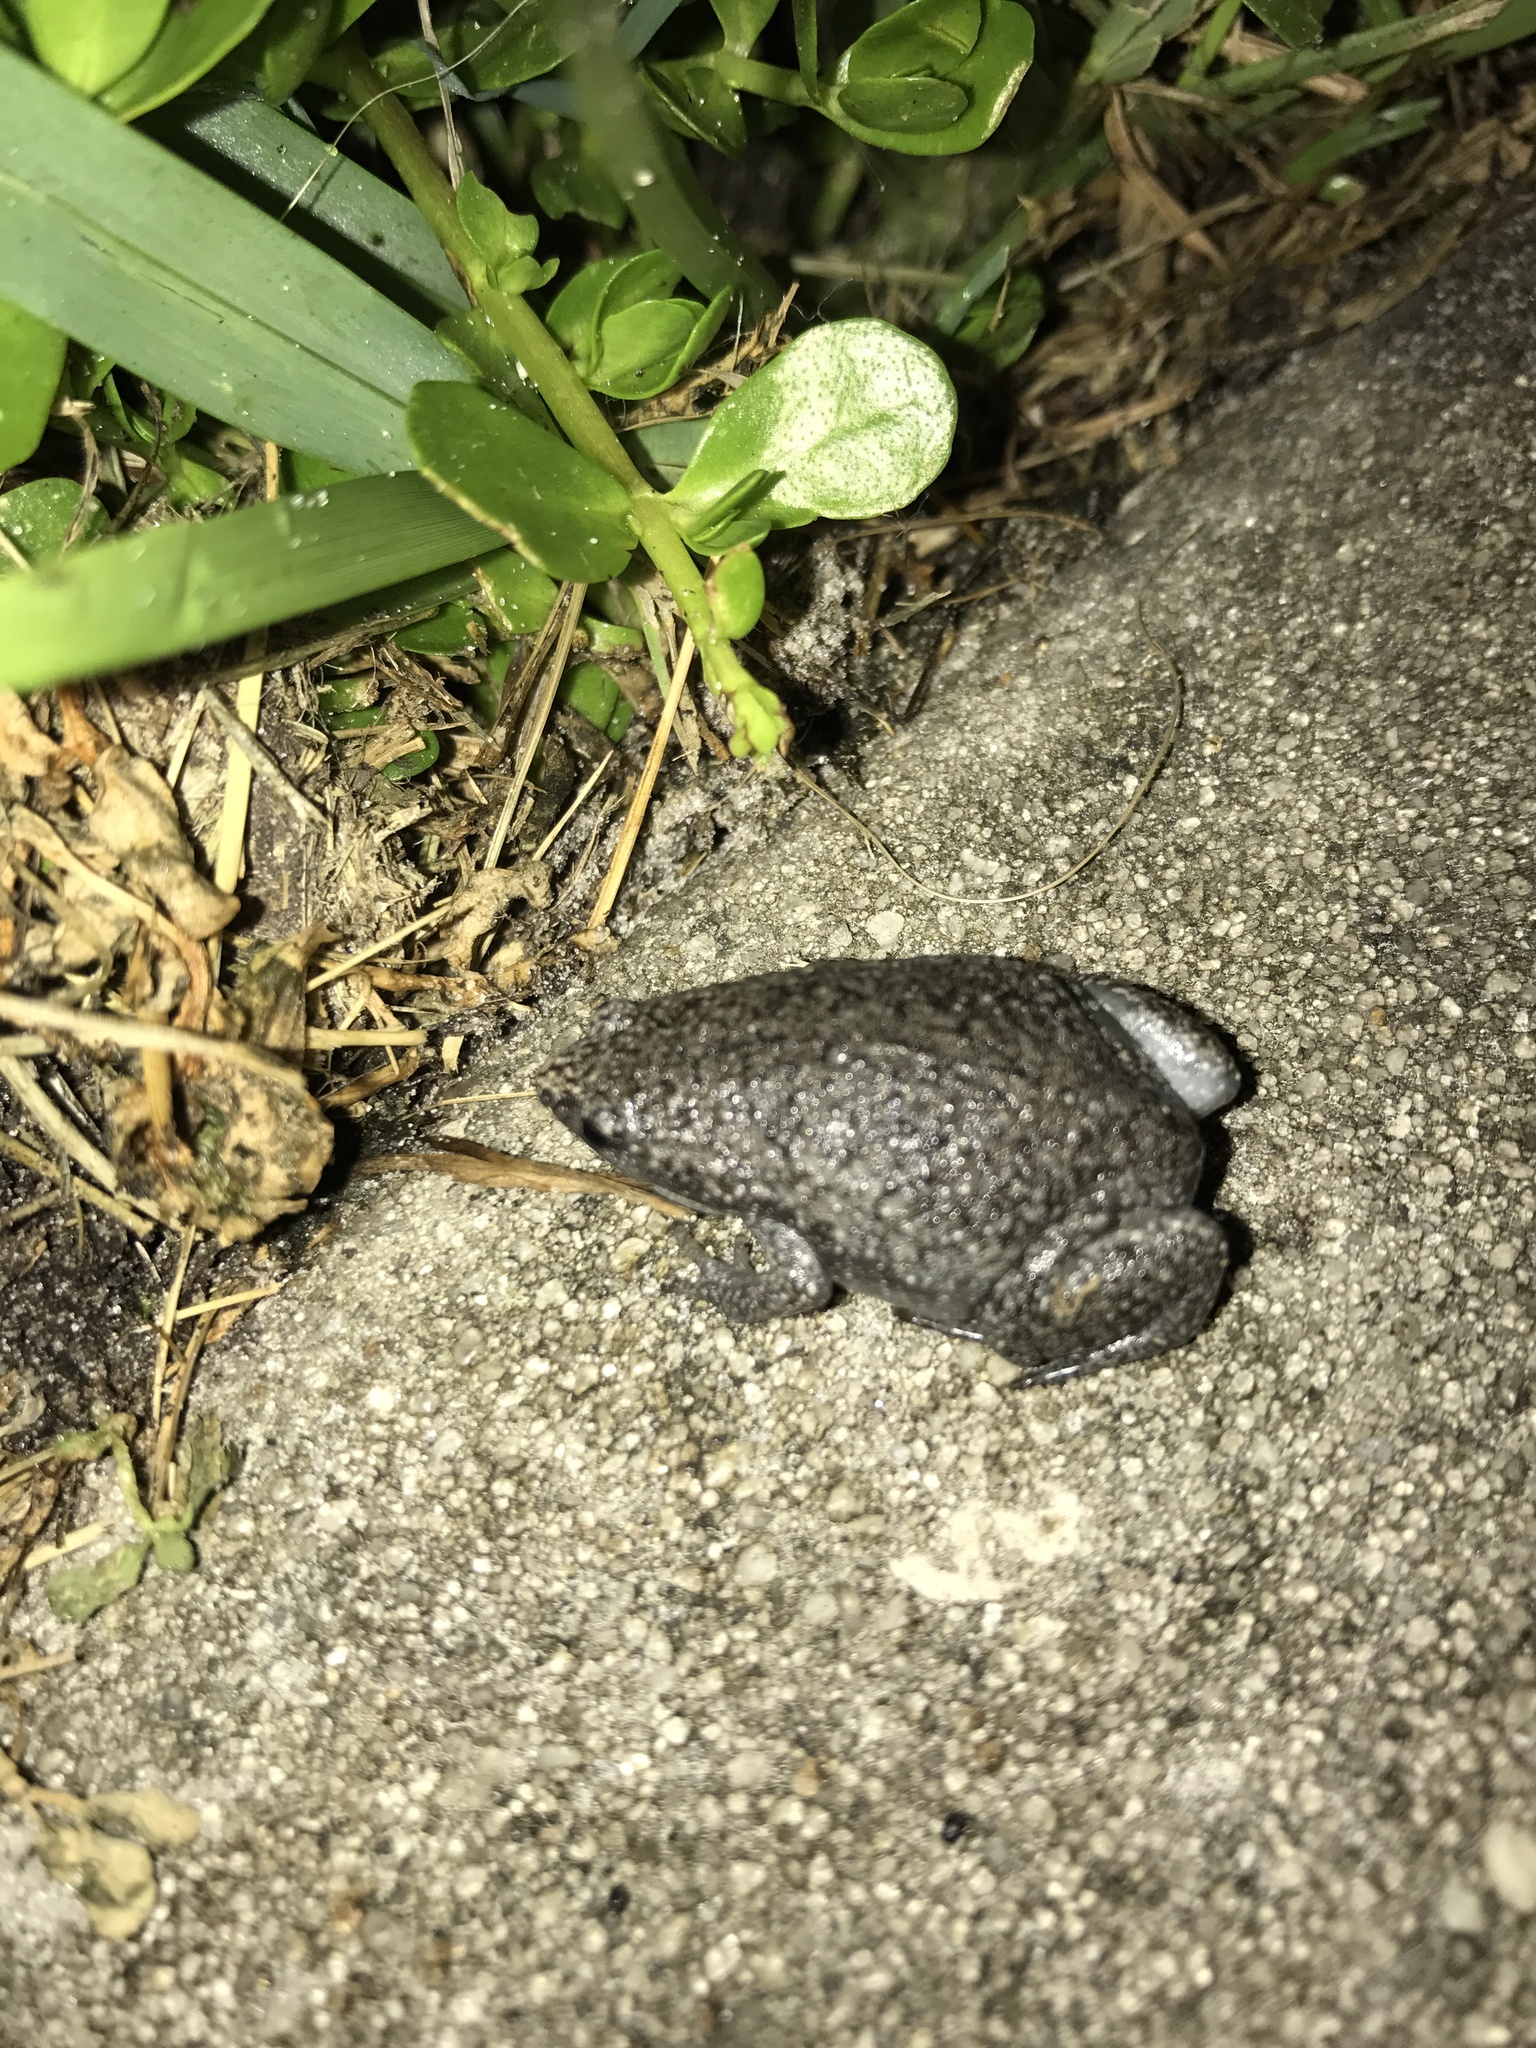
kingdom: Animalia
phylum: Chordata
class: Amphibia
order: Anura
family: Microhylidae
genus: Gastrophryne
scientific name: Gastrophryne carolinensis
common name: Eastern narrowmouth toad
